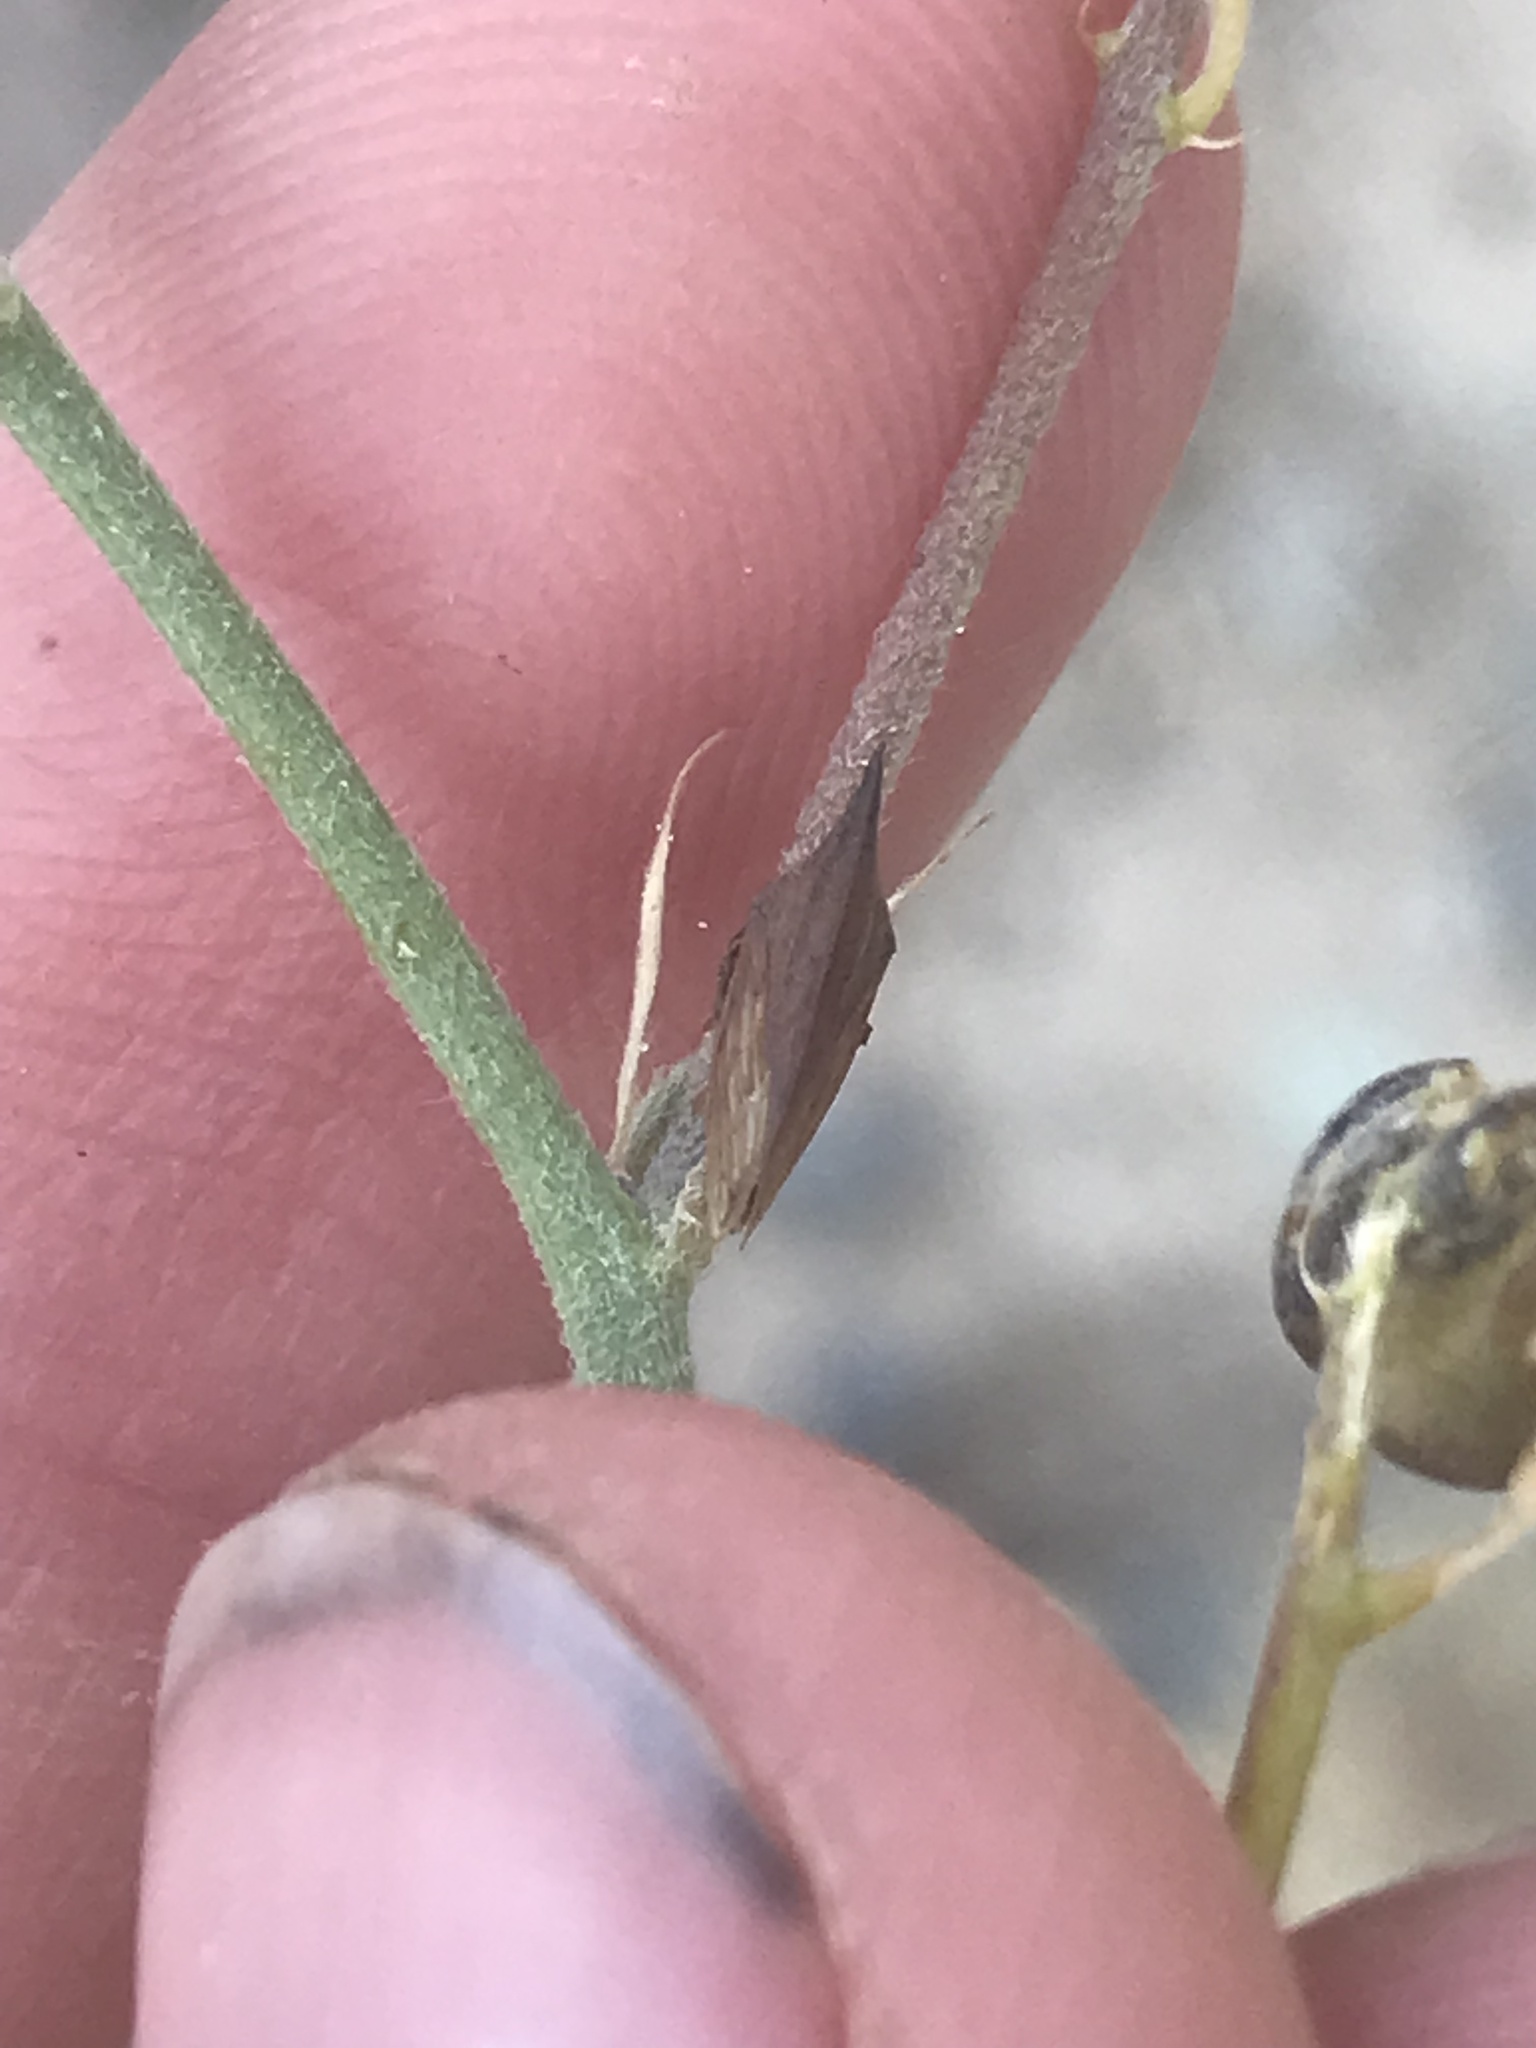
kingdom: Animalia
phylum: Arthropoda
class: Insecta
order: Hemiptera
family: Membracidae
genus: Enchenopa
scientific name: Enchenopa latipes
